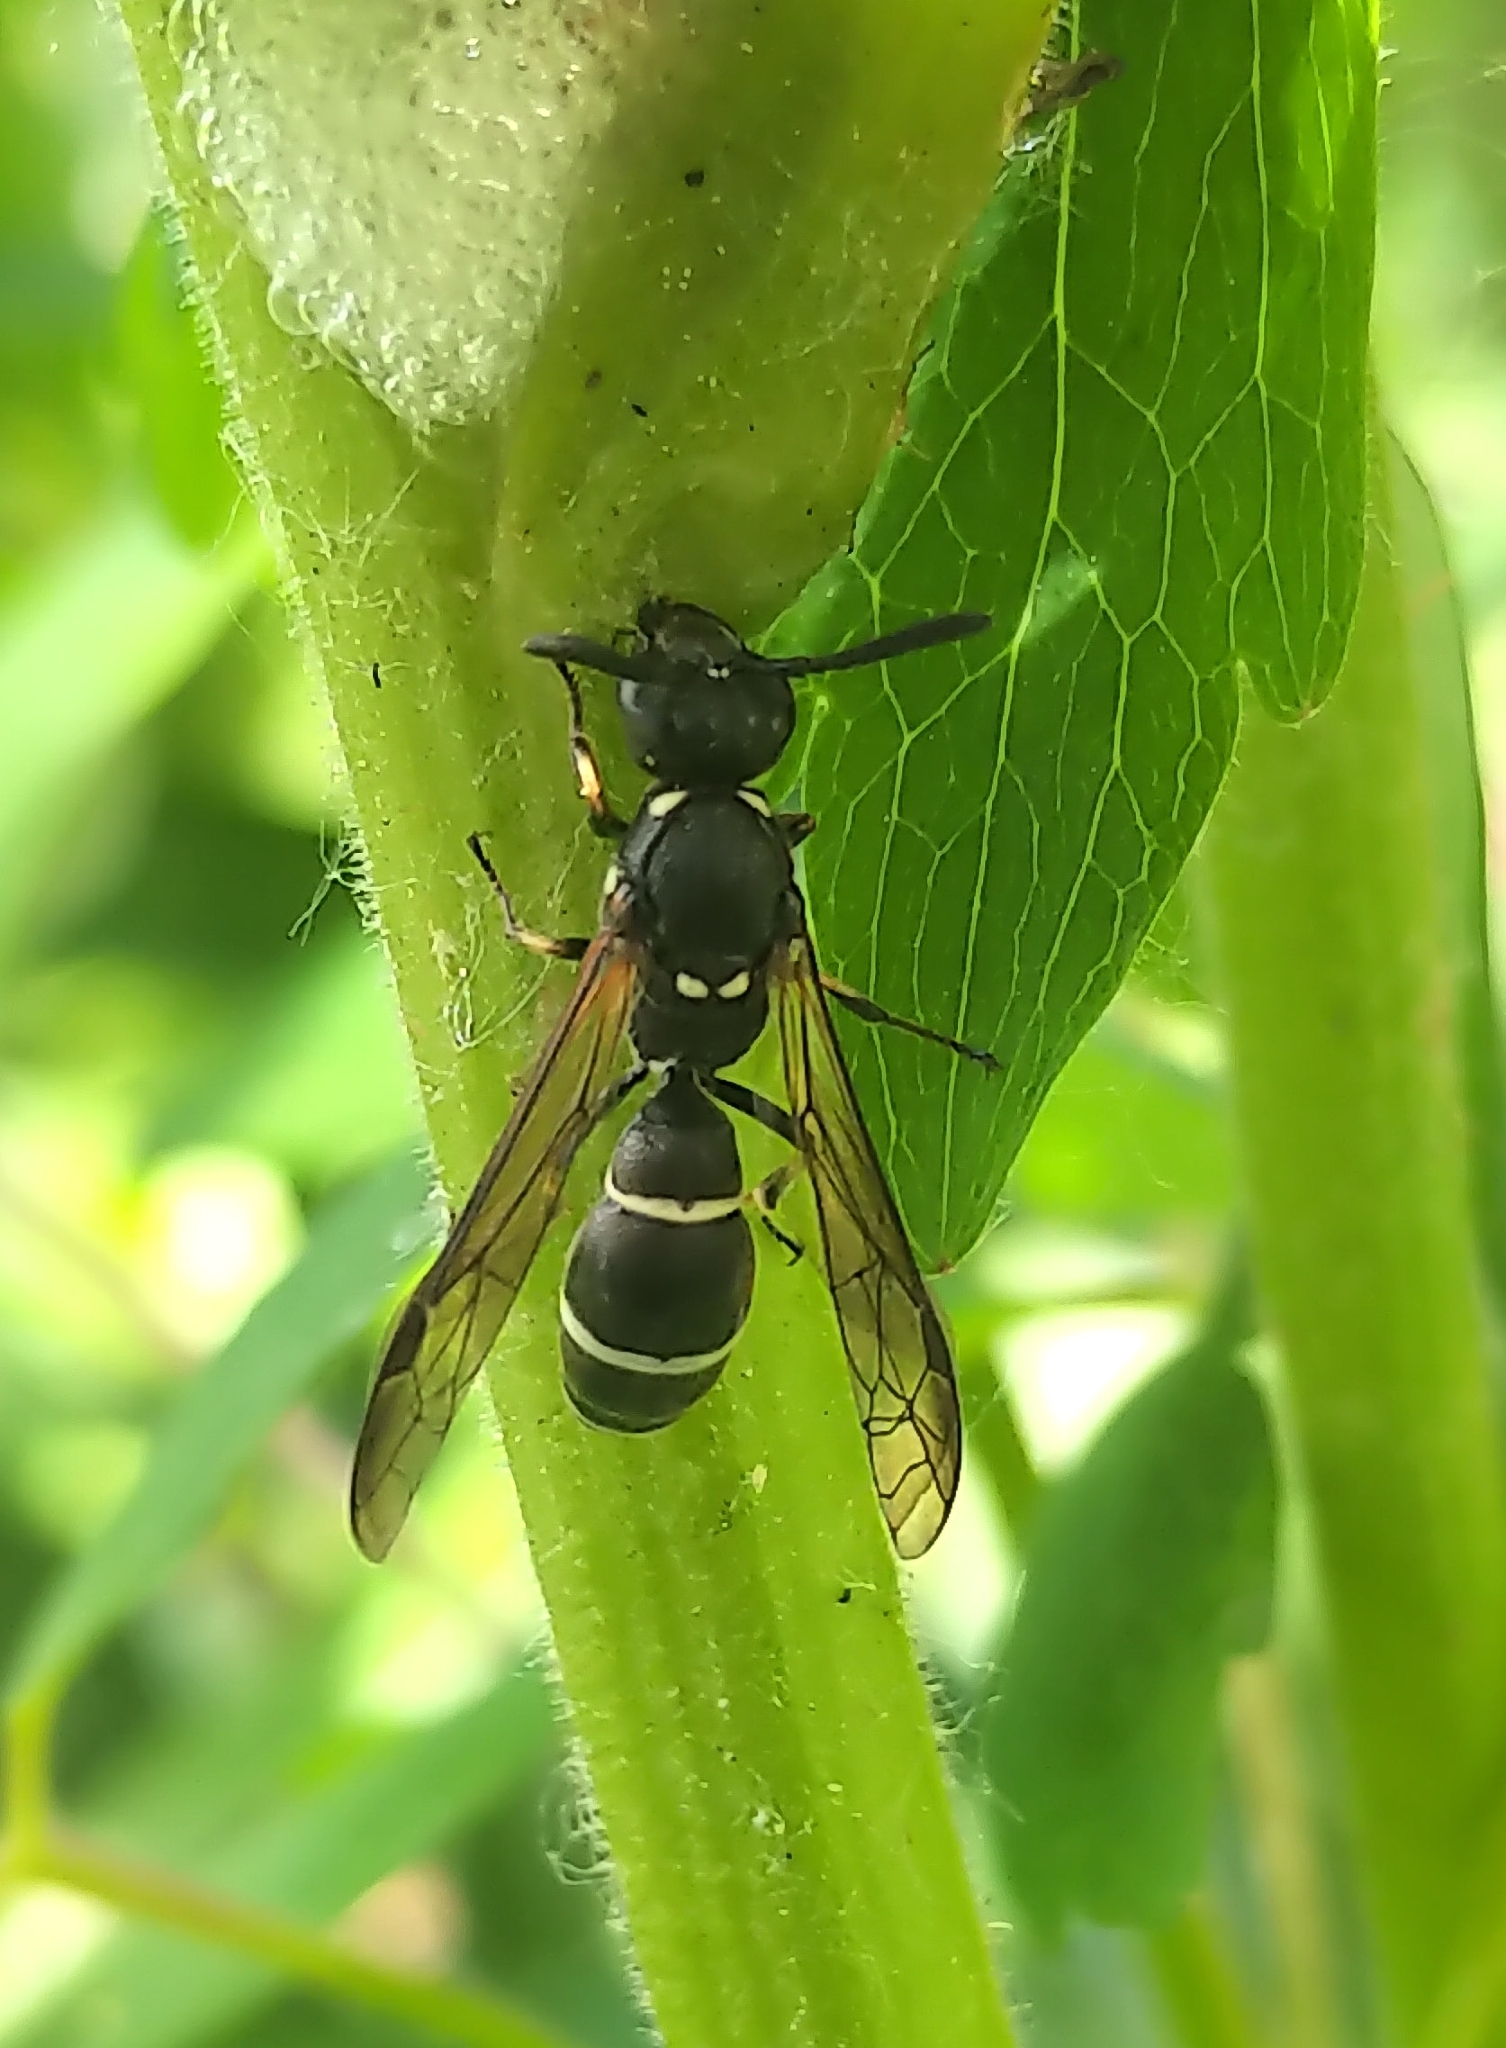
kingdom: Animalia
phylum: Arthropoda
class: Insecta
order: Hymenoptera
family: Eumenidae
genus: Symmorphus
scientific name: Symmorphus
